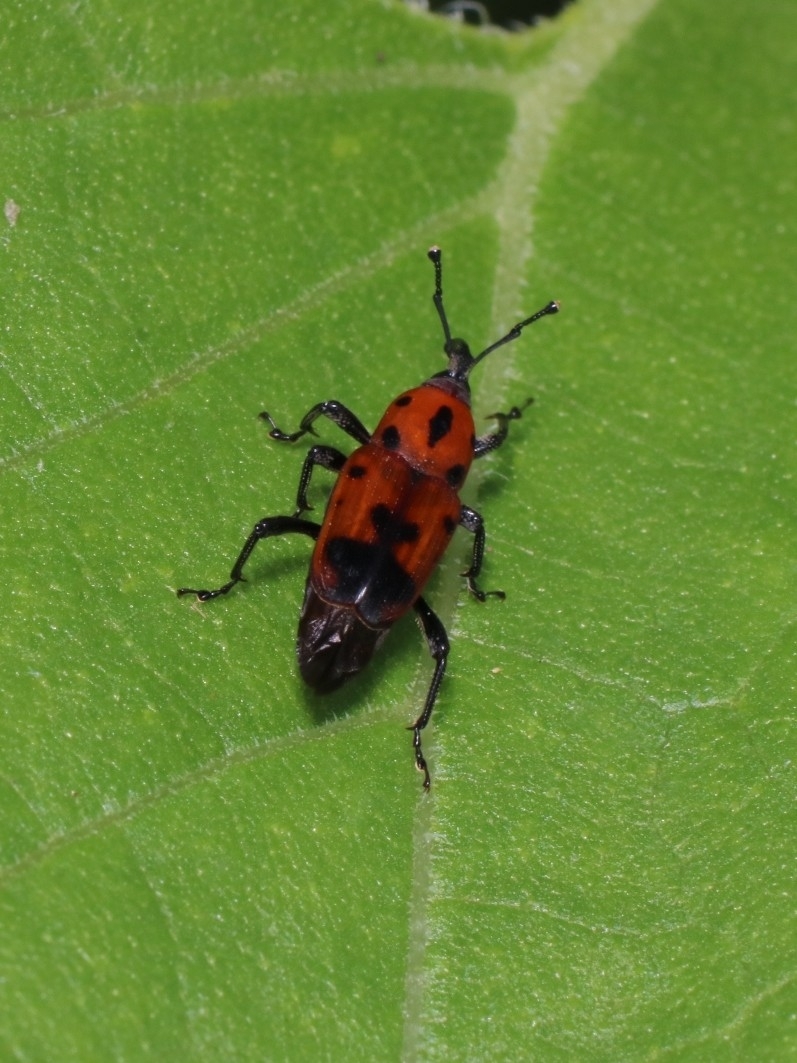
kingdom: Animalia
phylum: Arthropoda
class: Insecta
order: Coleoptera
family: Dryophthoridae
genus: Rhodobaenus
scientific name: Rhodobaenus quinquepunctatus
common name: Cocklebur weevil
